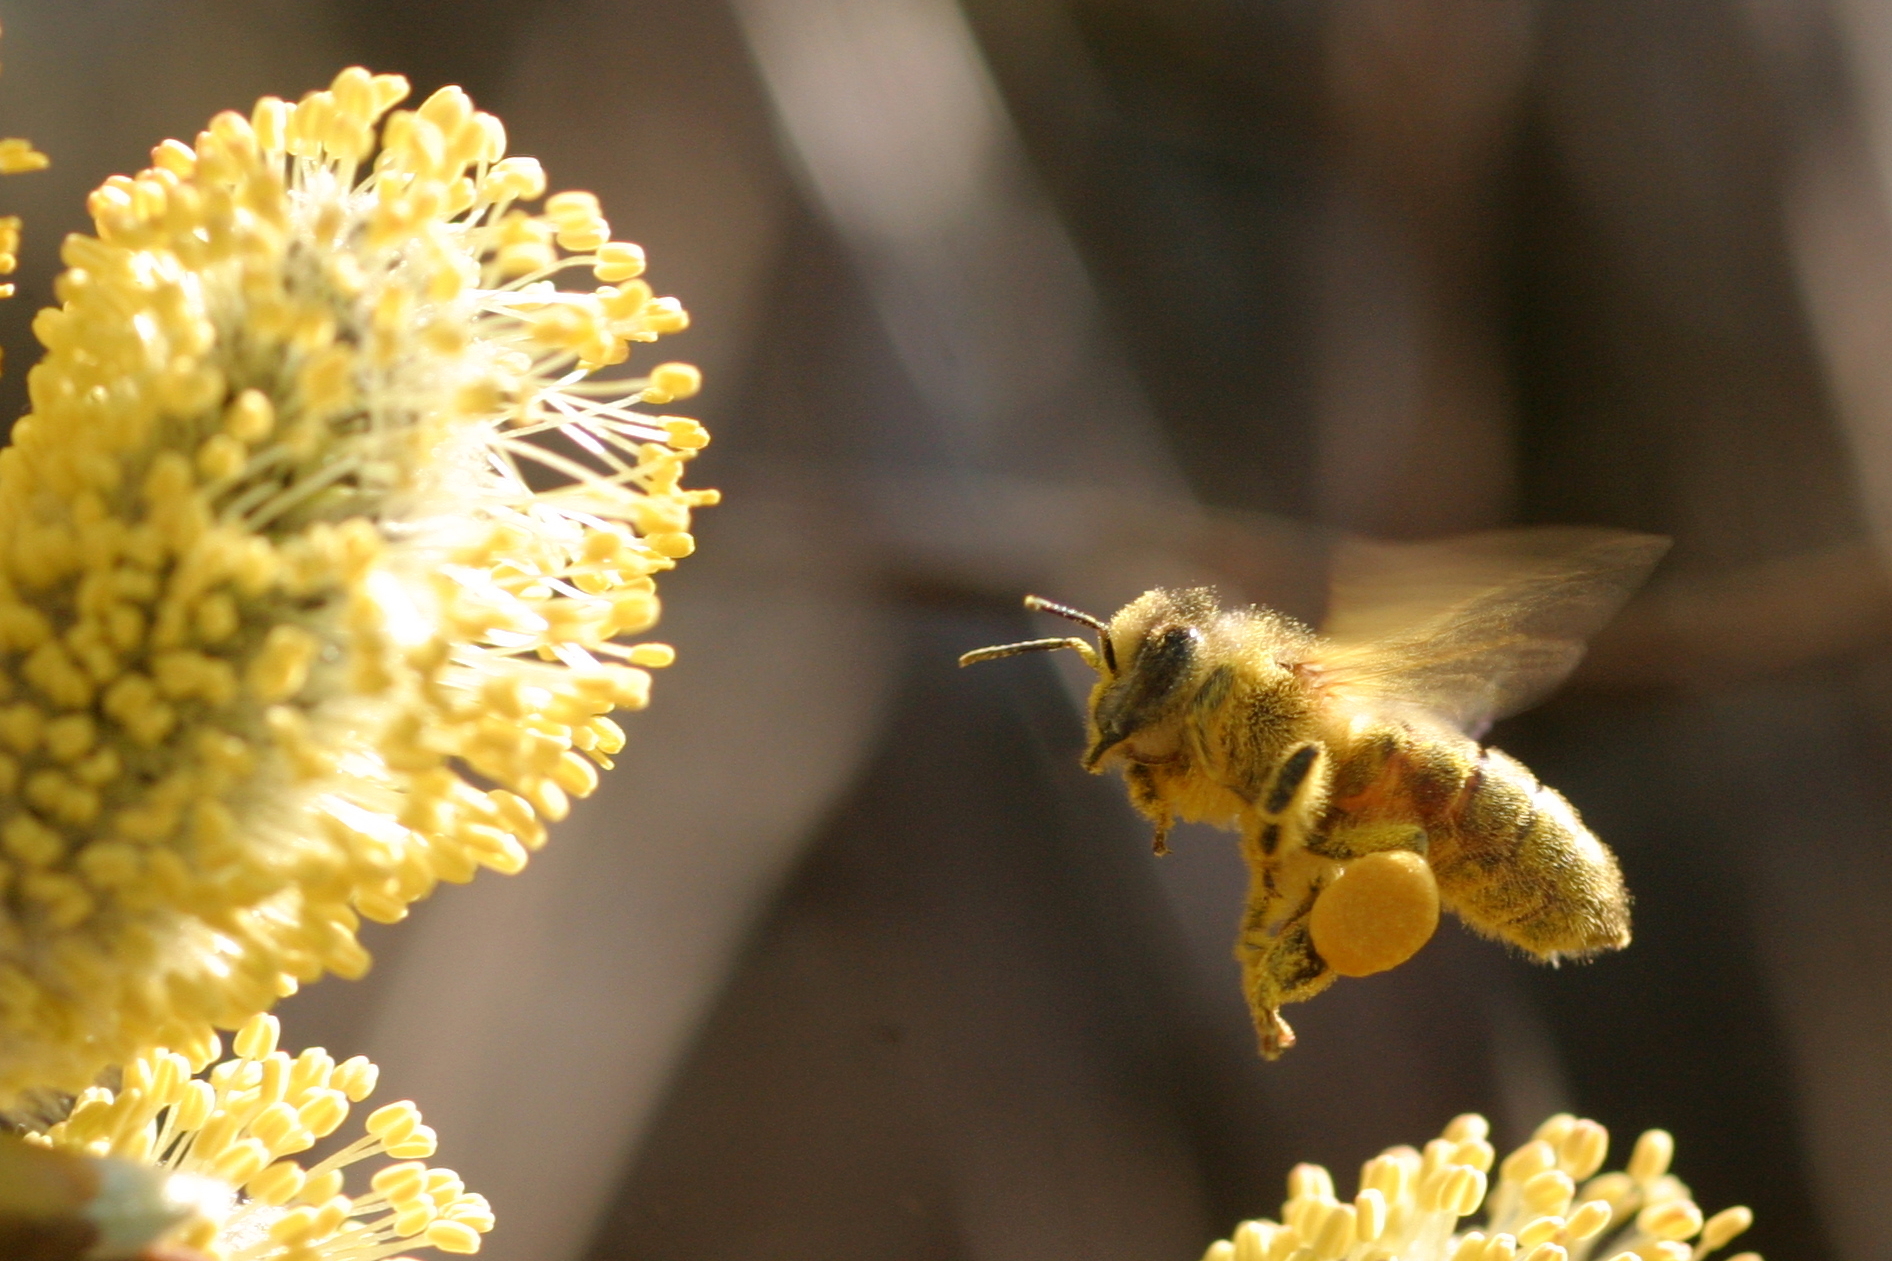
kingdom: Animalia
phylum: Arthropoda
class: Insecta
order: Hymenoptera
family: Apidae
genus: Apis
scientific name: Apis mellifera
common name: Honey bee
